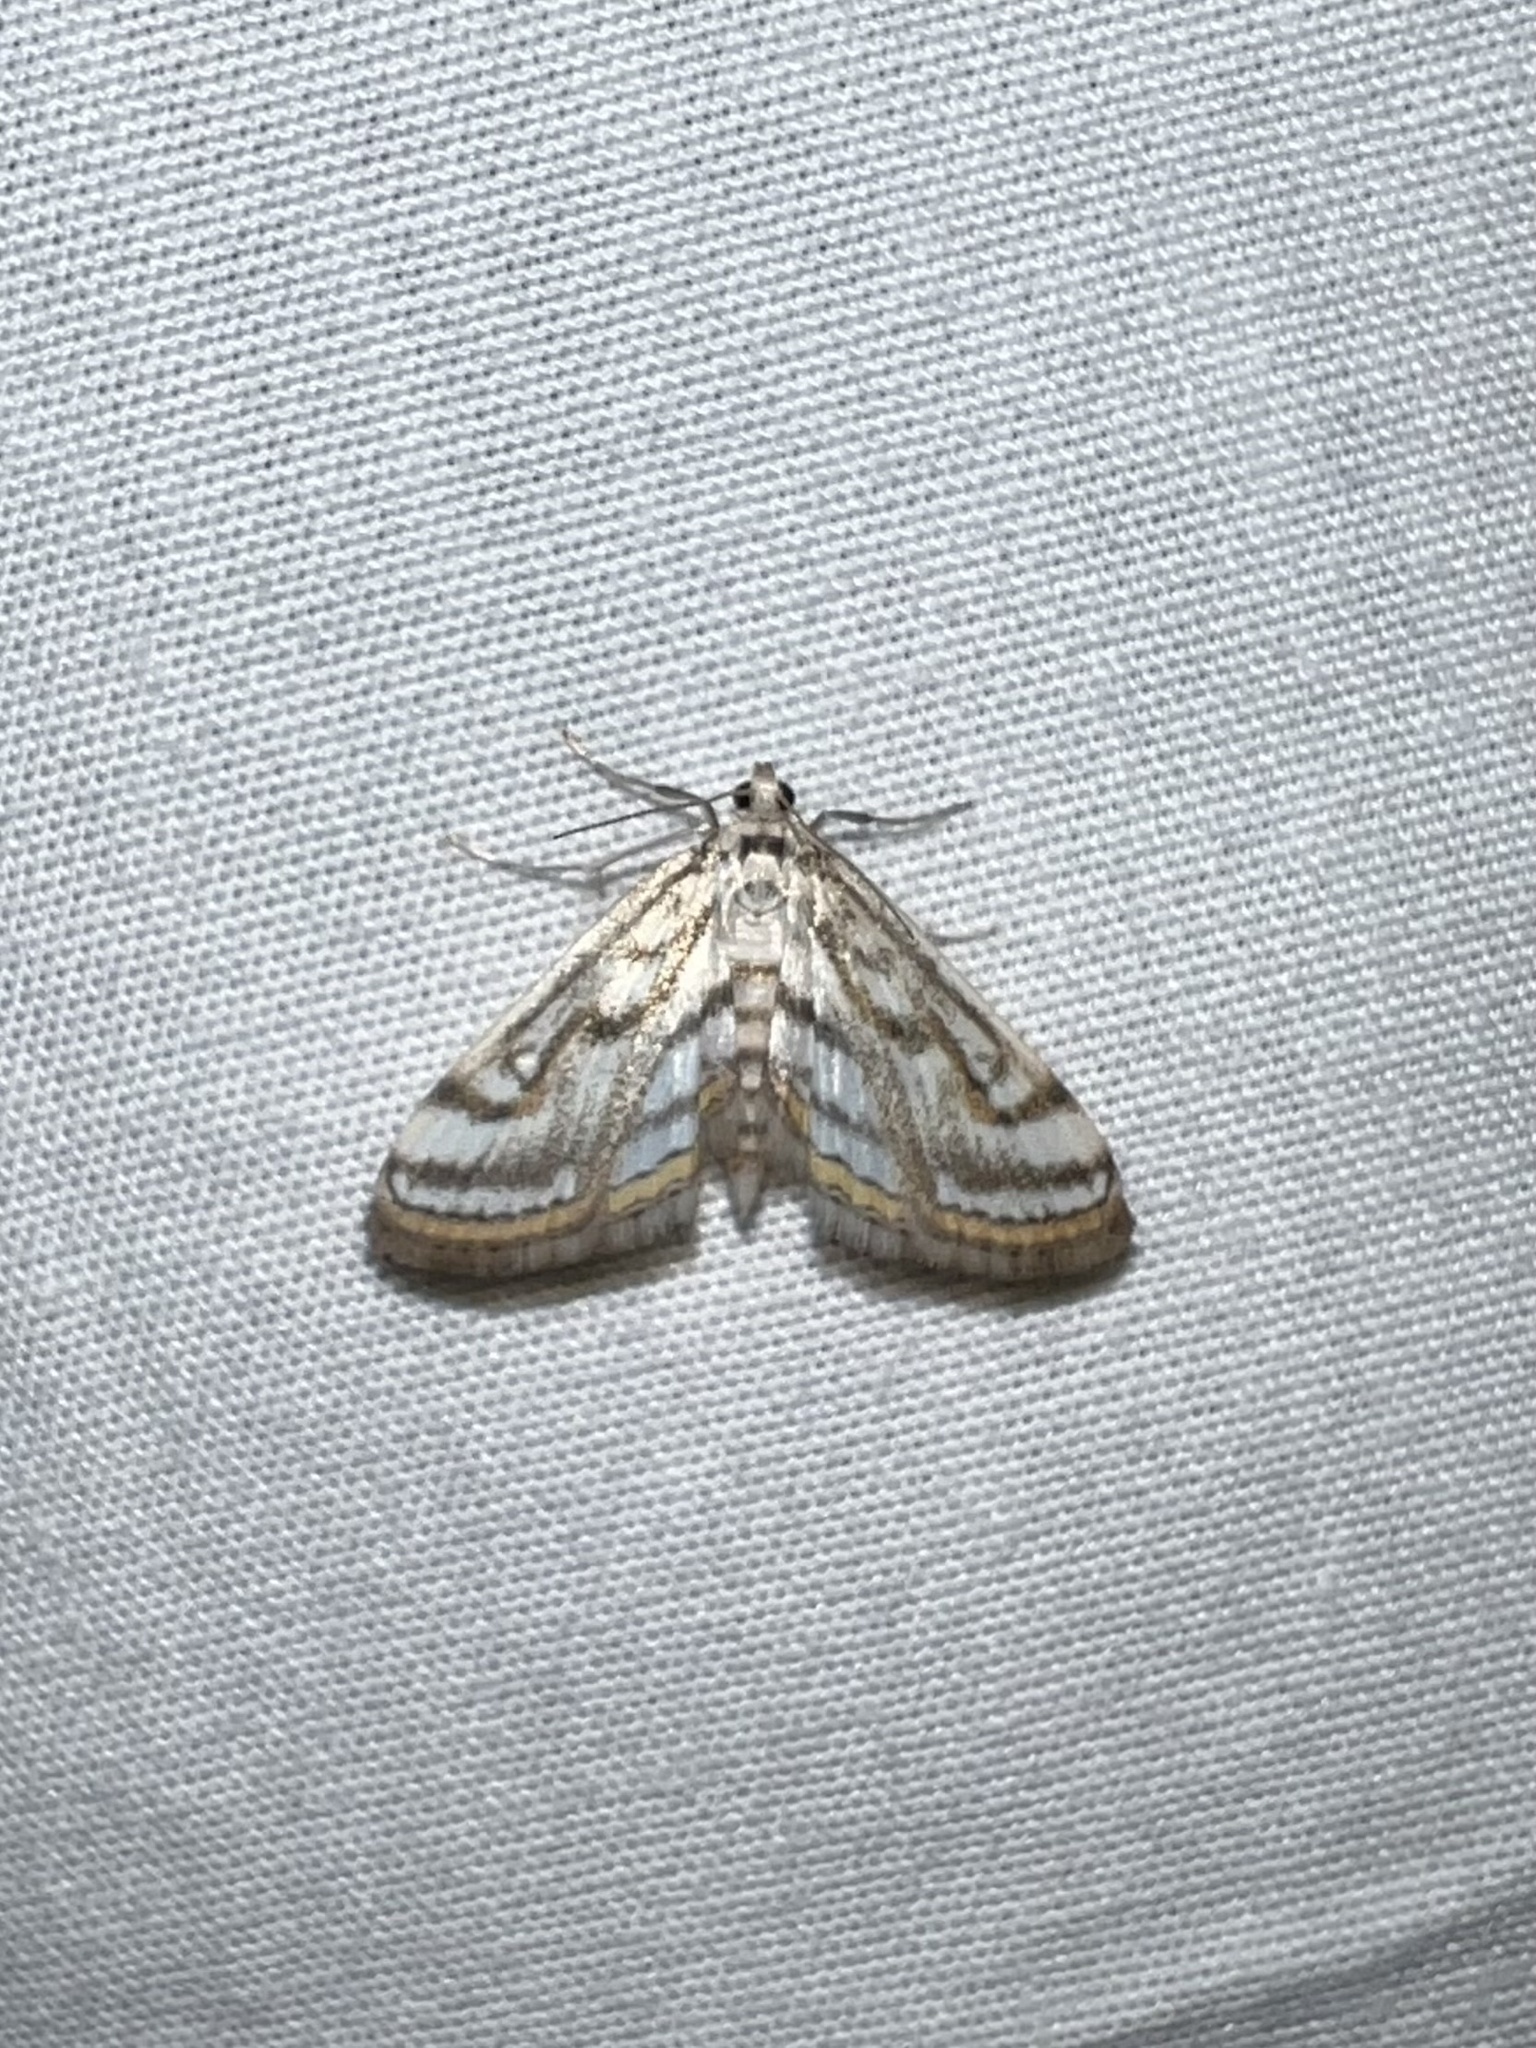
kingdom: Animalia
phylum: Arthropoda
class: Insecta
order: Lepidoptera
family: Crambidae
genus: Parapoynx
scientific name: Parapoynx badiusalis
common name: Chestnut-marked pondweed moth
